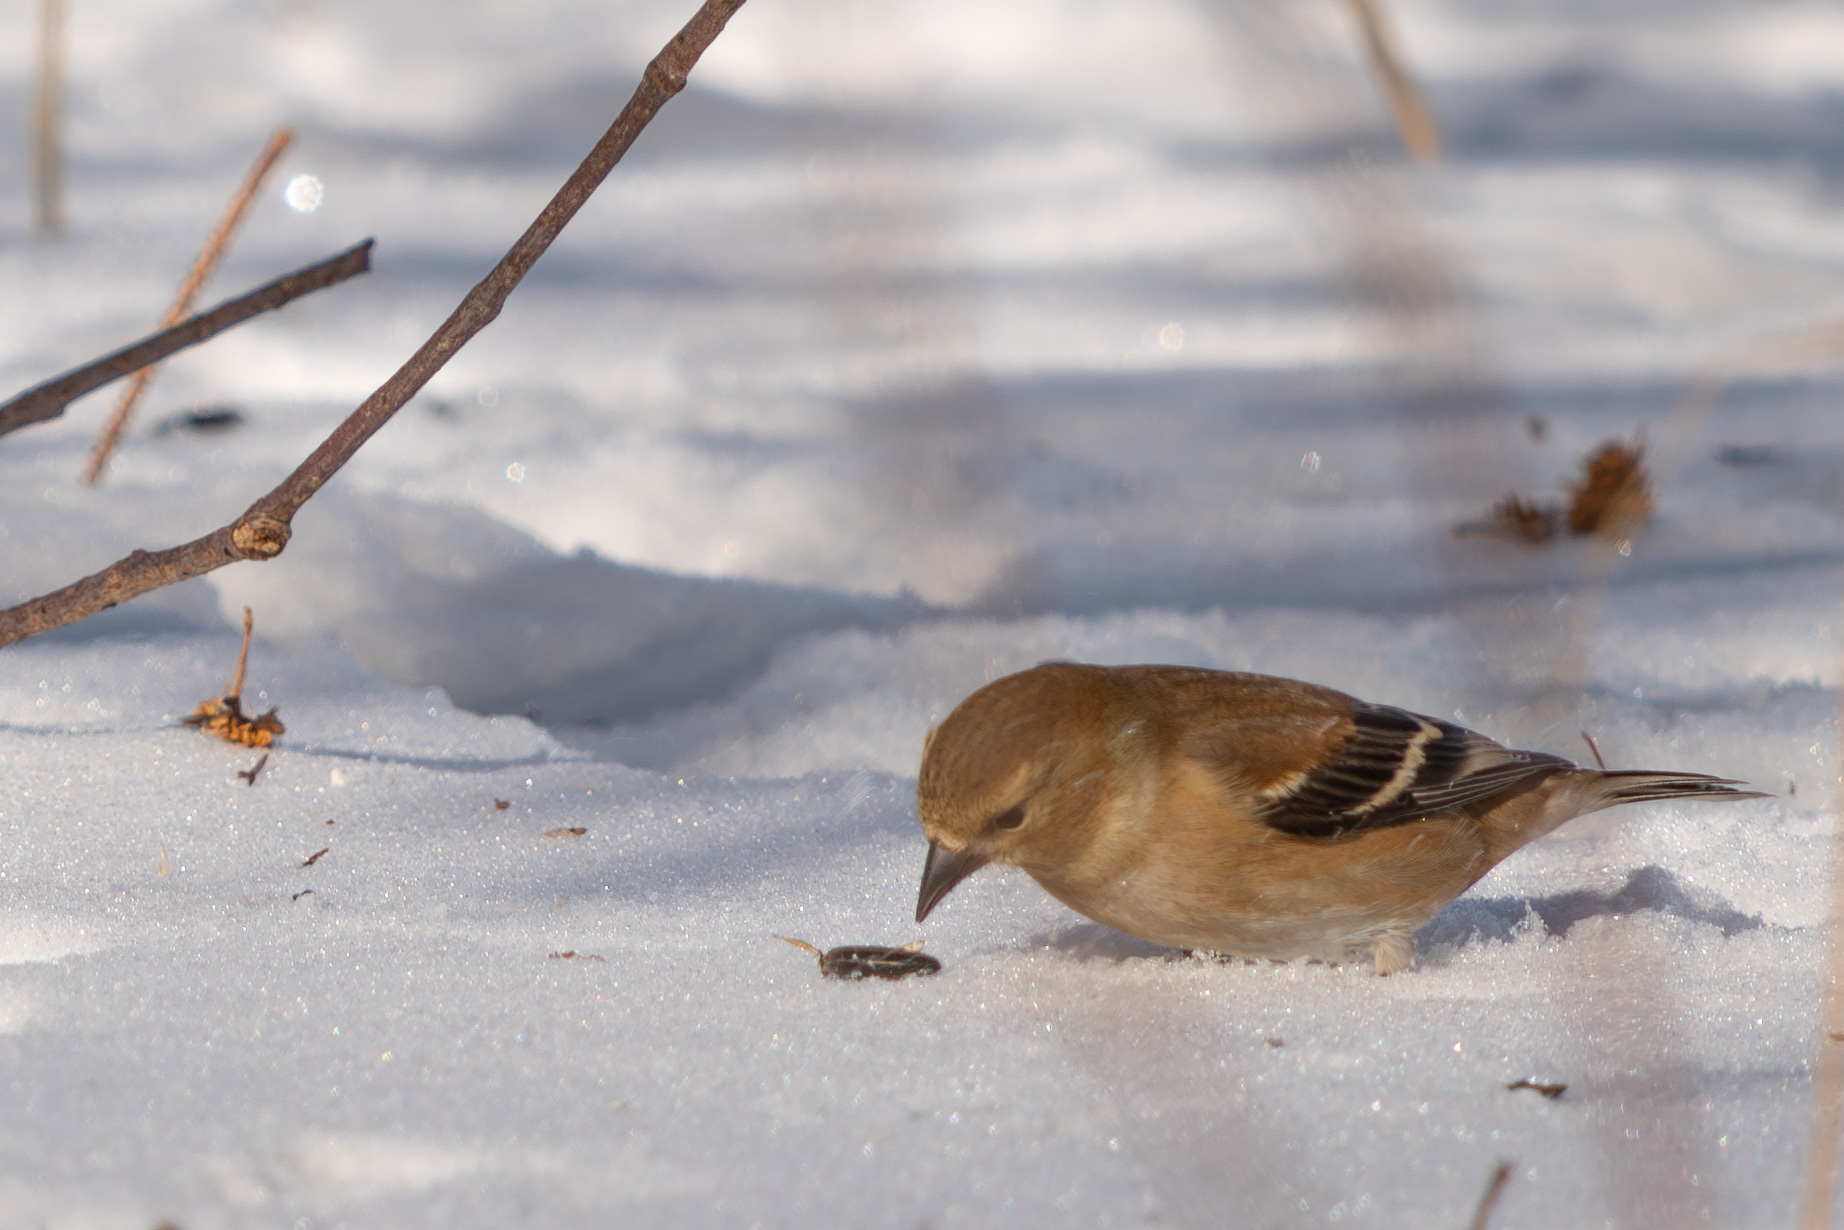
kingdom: Animalia
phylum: Chordata
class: Aves
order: Passeriformes
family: Fringillidae
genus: Spinus
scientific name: Spinus tristis
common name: American goldfinch
